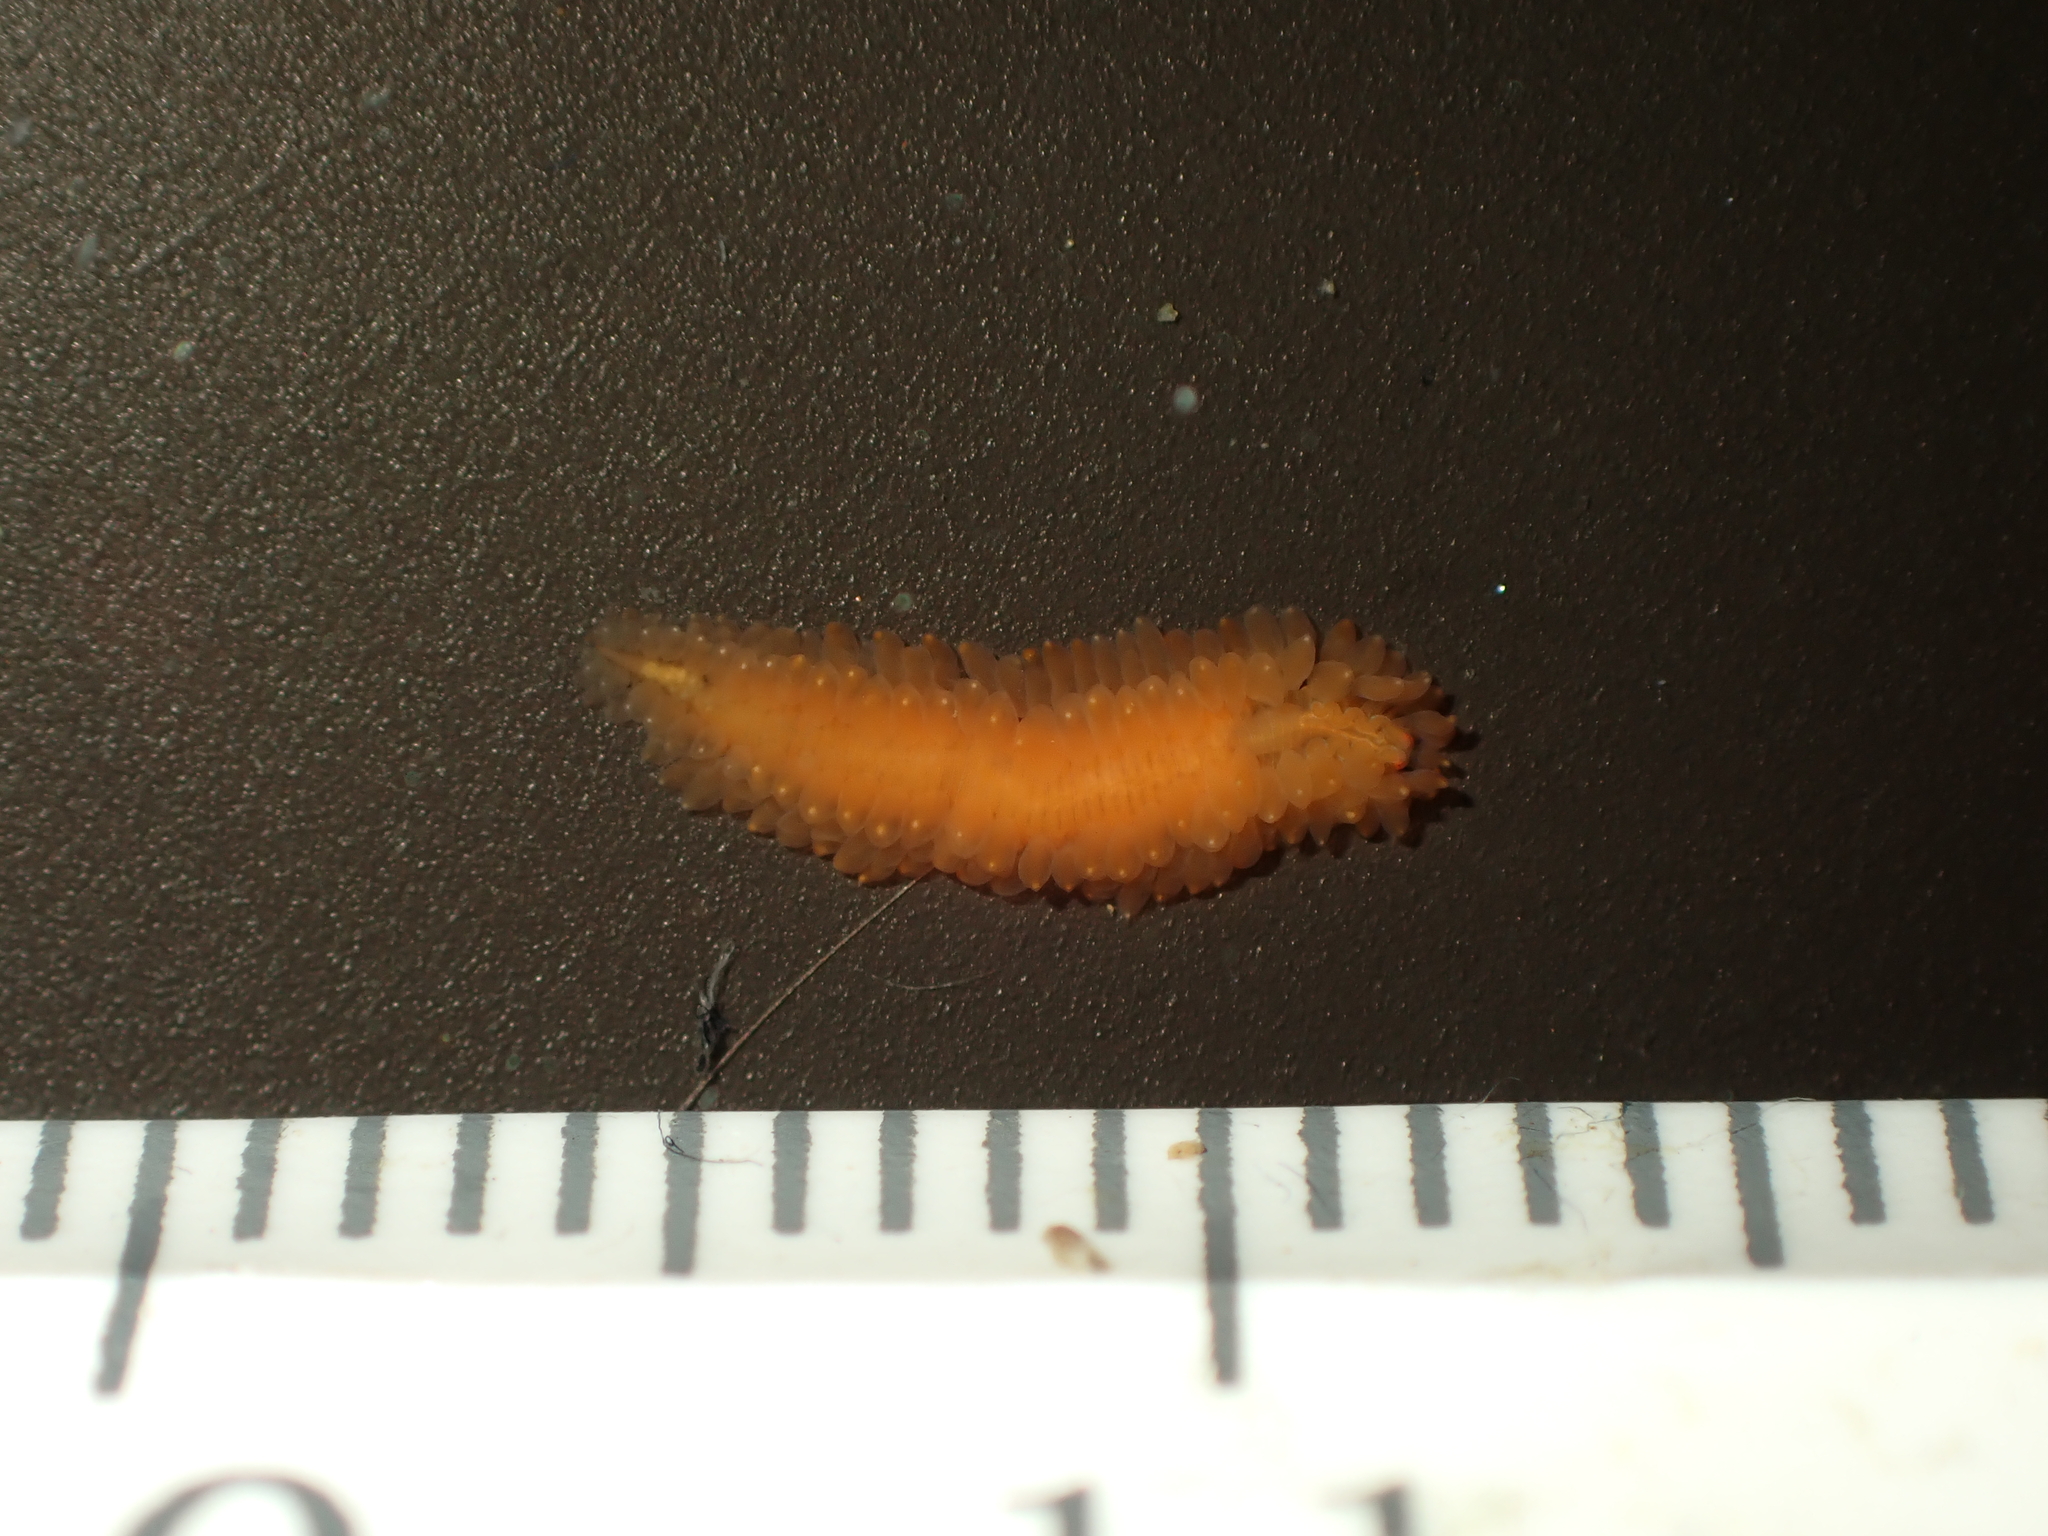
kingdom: Animalia
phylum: Annelida
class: Polychaeta
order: Phyllodocida
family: Syllidae
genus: Clavisyllis
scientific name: Clavisyllis alternata
